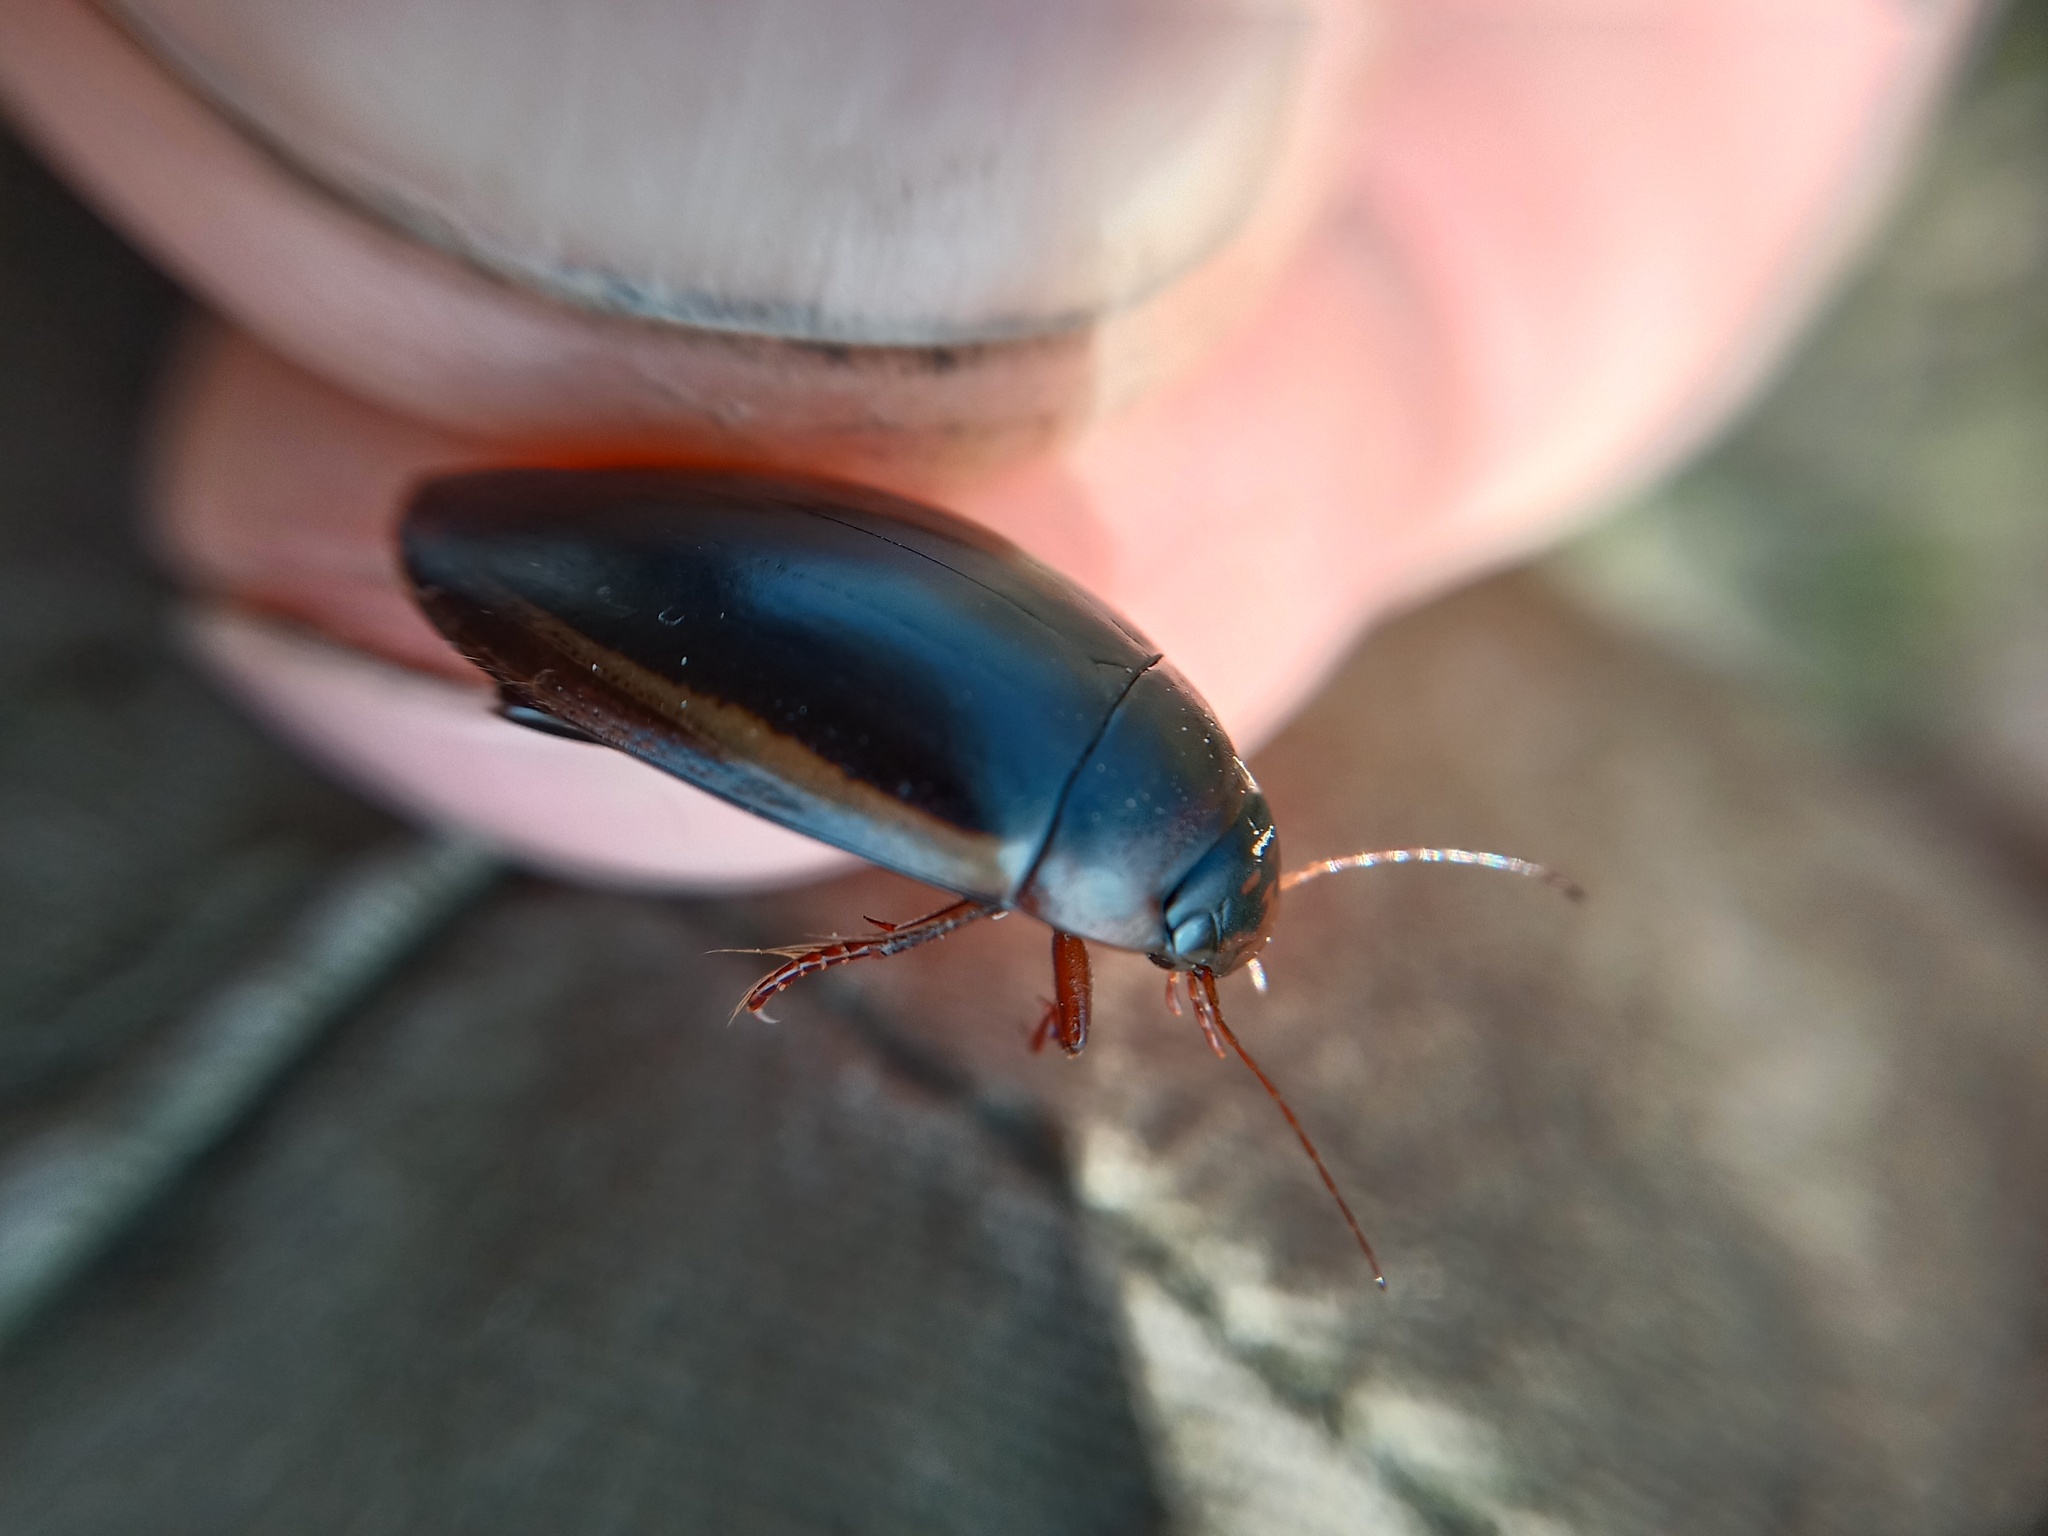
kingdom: Animalia
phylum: Arthropoda
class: Insecta
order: Coleoptera
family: Dytiscidae
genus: Hydaticus
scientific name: Hydaticus seminiger
